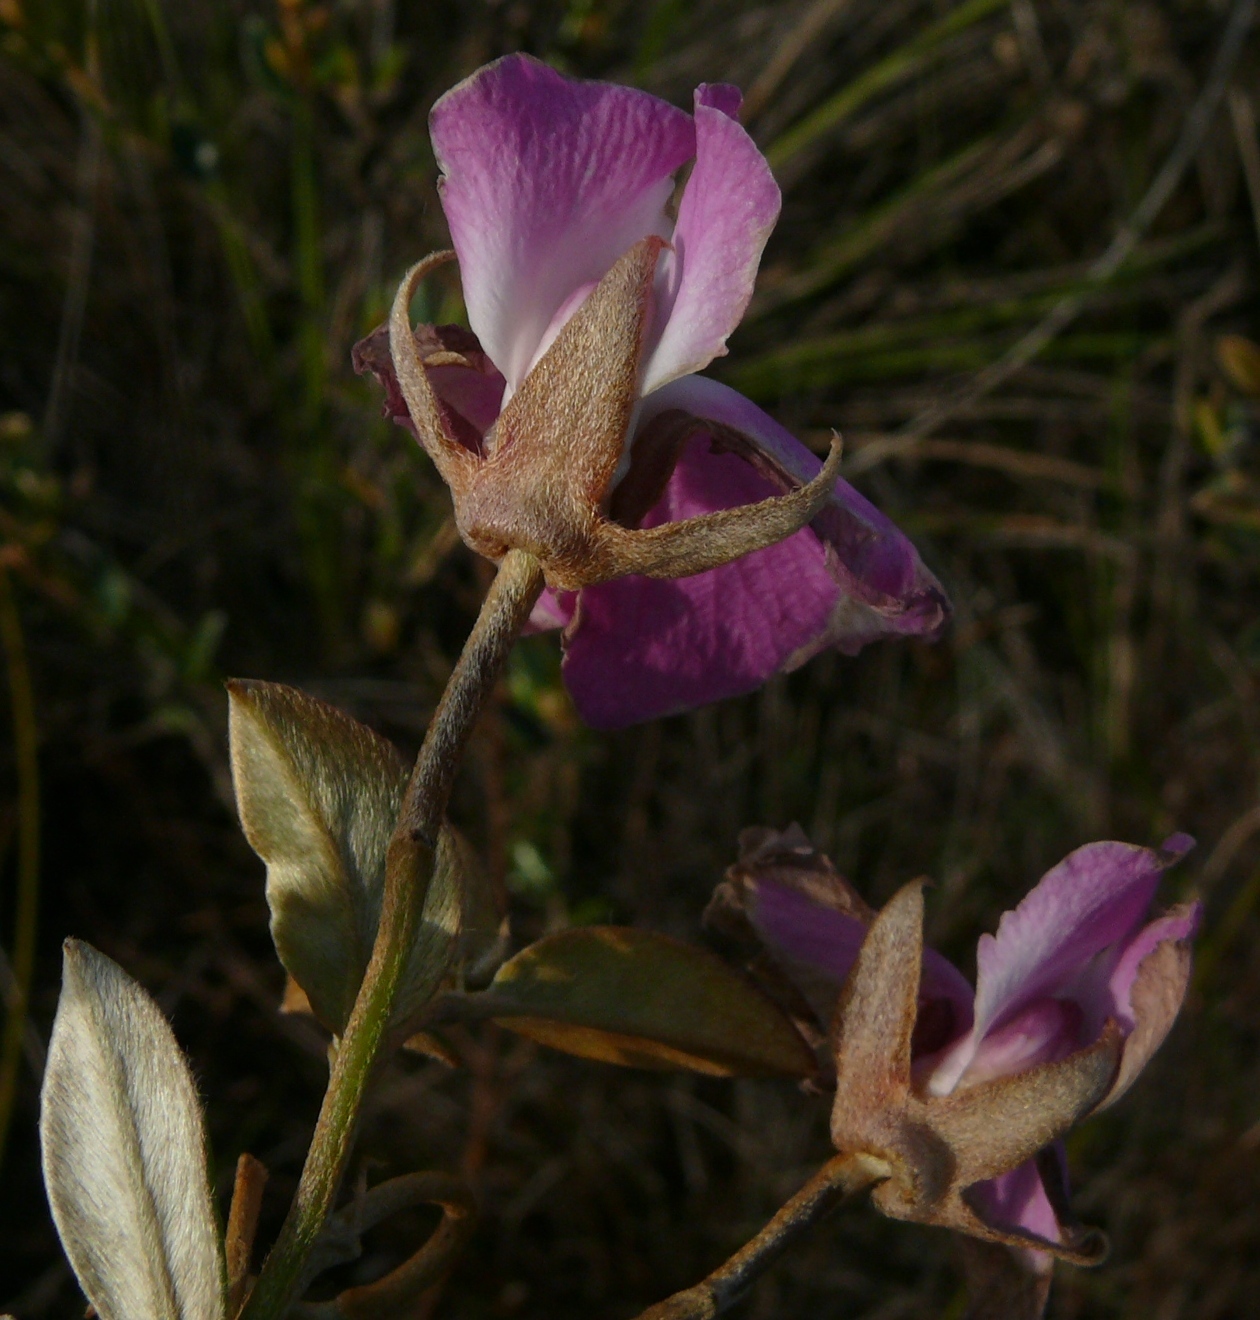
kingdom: Plantae
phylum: Tracheophyta
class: Magnoliopsida
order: Fabales
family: Fabaceae
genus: Podalyria
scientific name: Podalyria biflora
